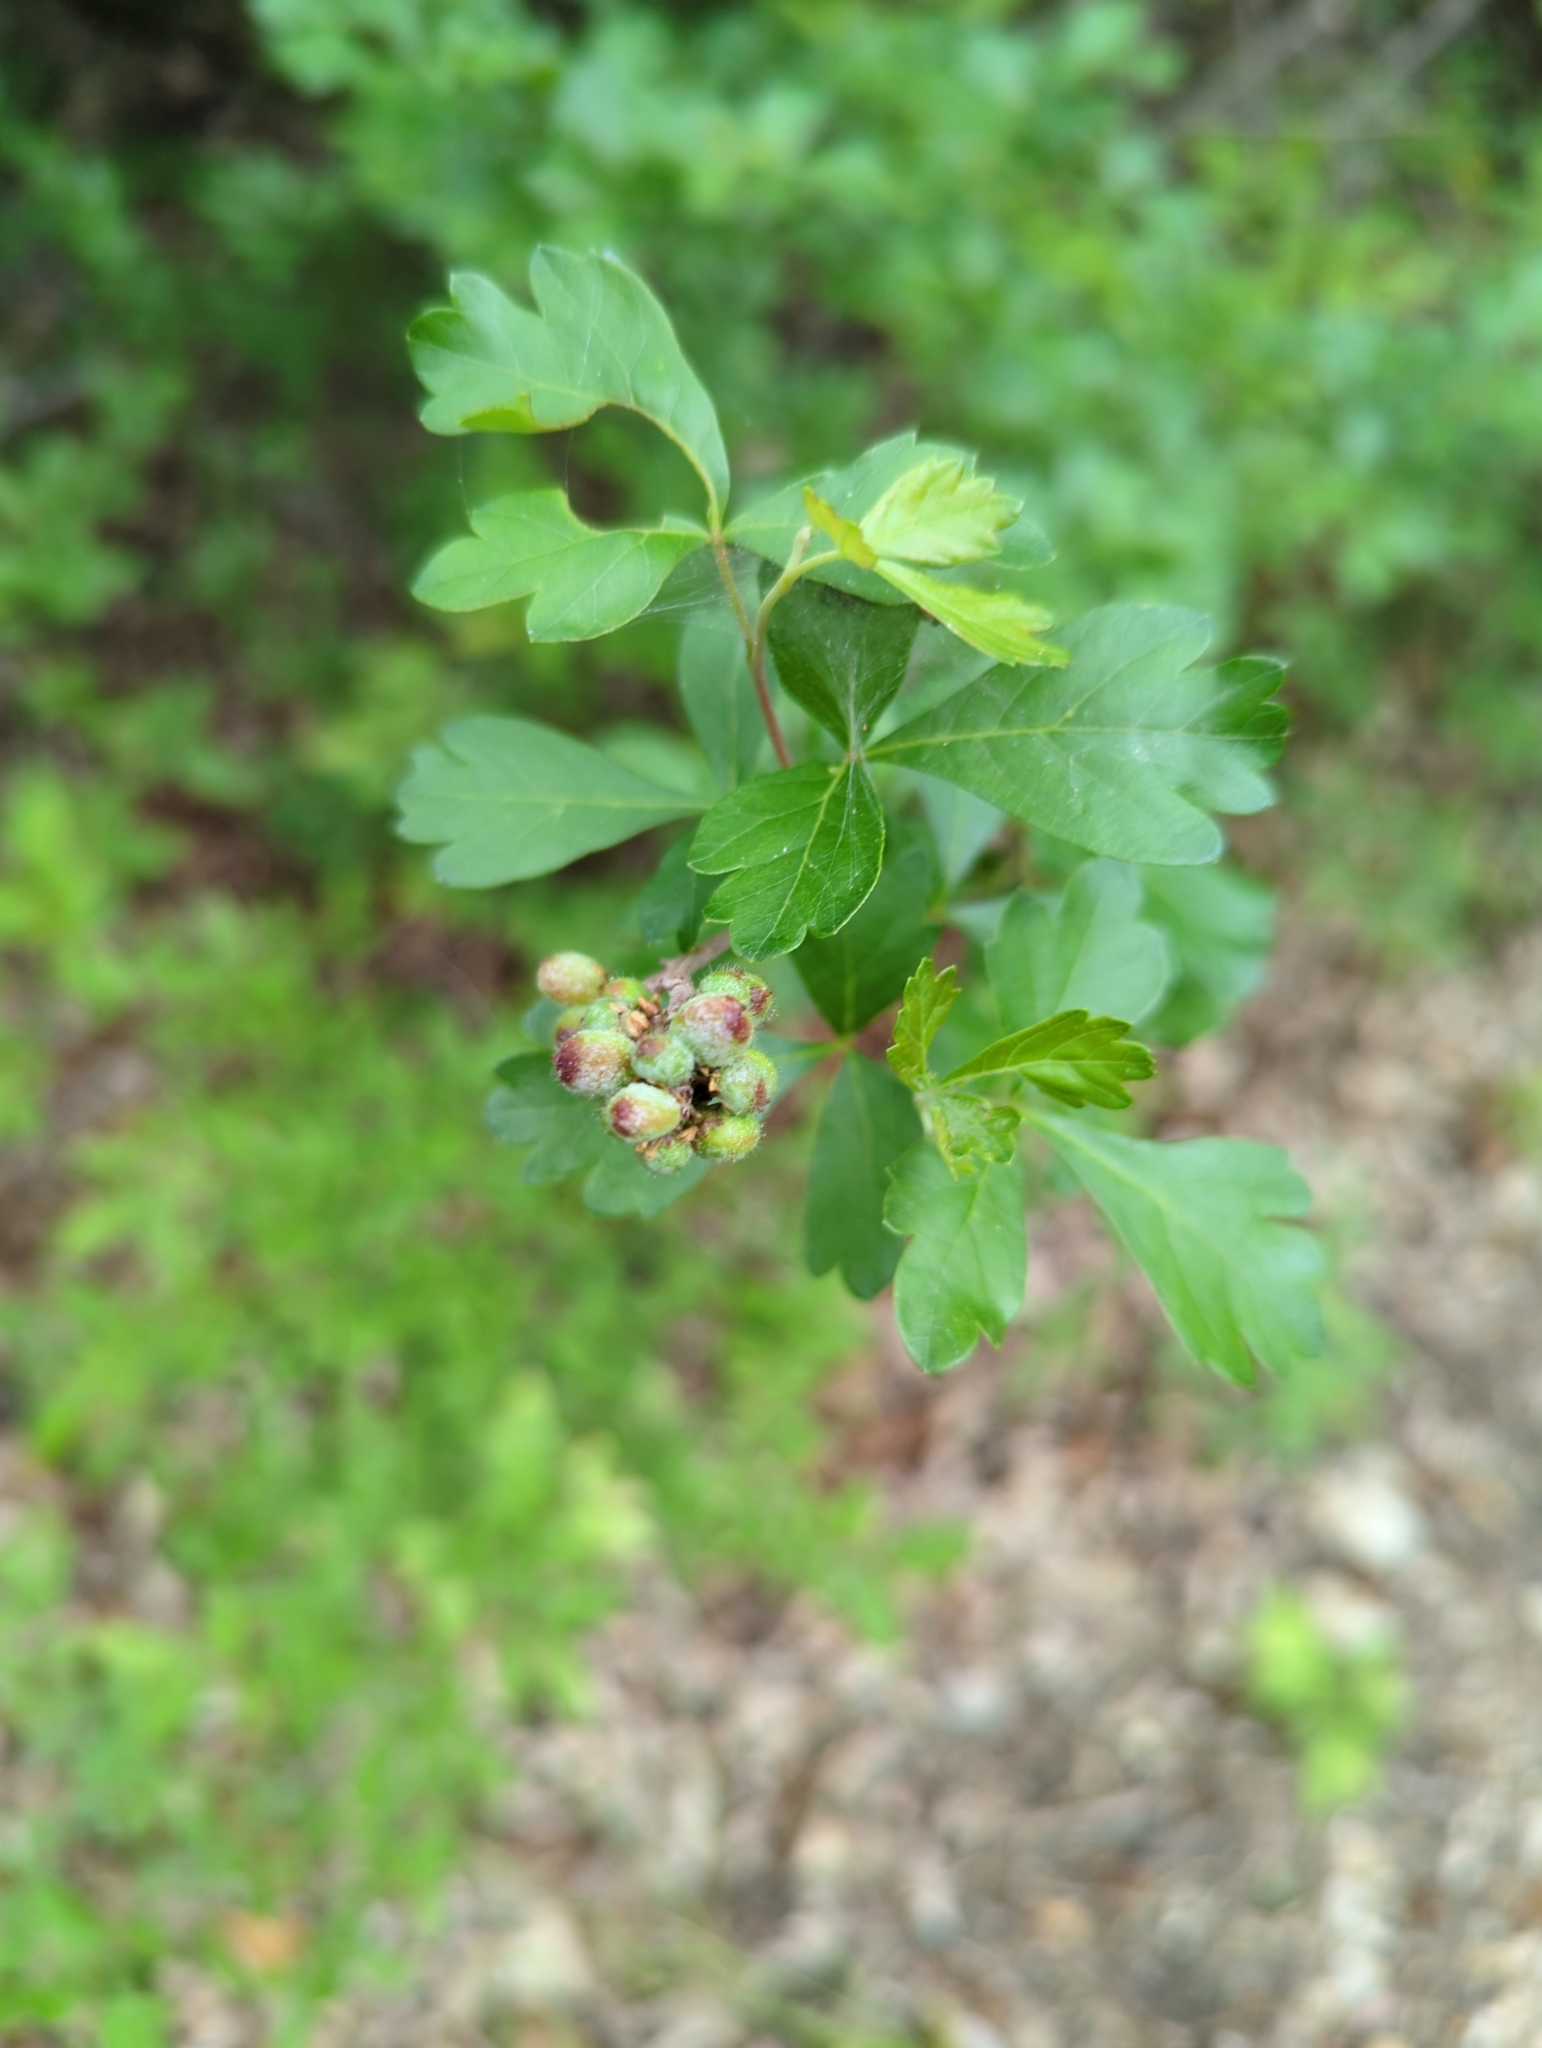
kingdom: Plantae
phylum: Tracheophyta
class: Magnoliopsida
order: Sapindales
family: Anacardiaceae
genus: Rhus
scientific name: Rhus aromatica
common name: Aromatic sumac
